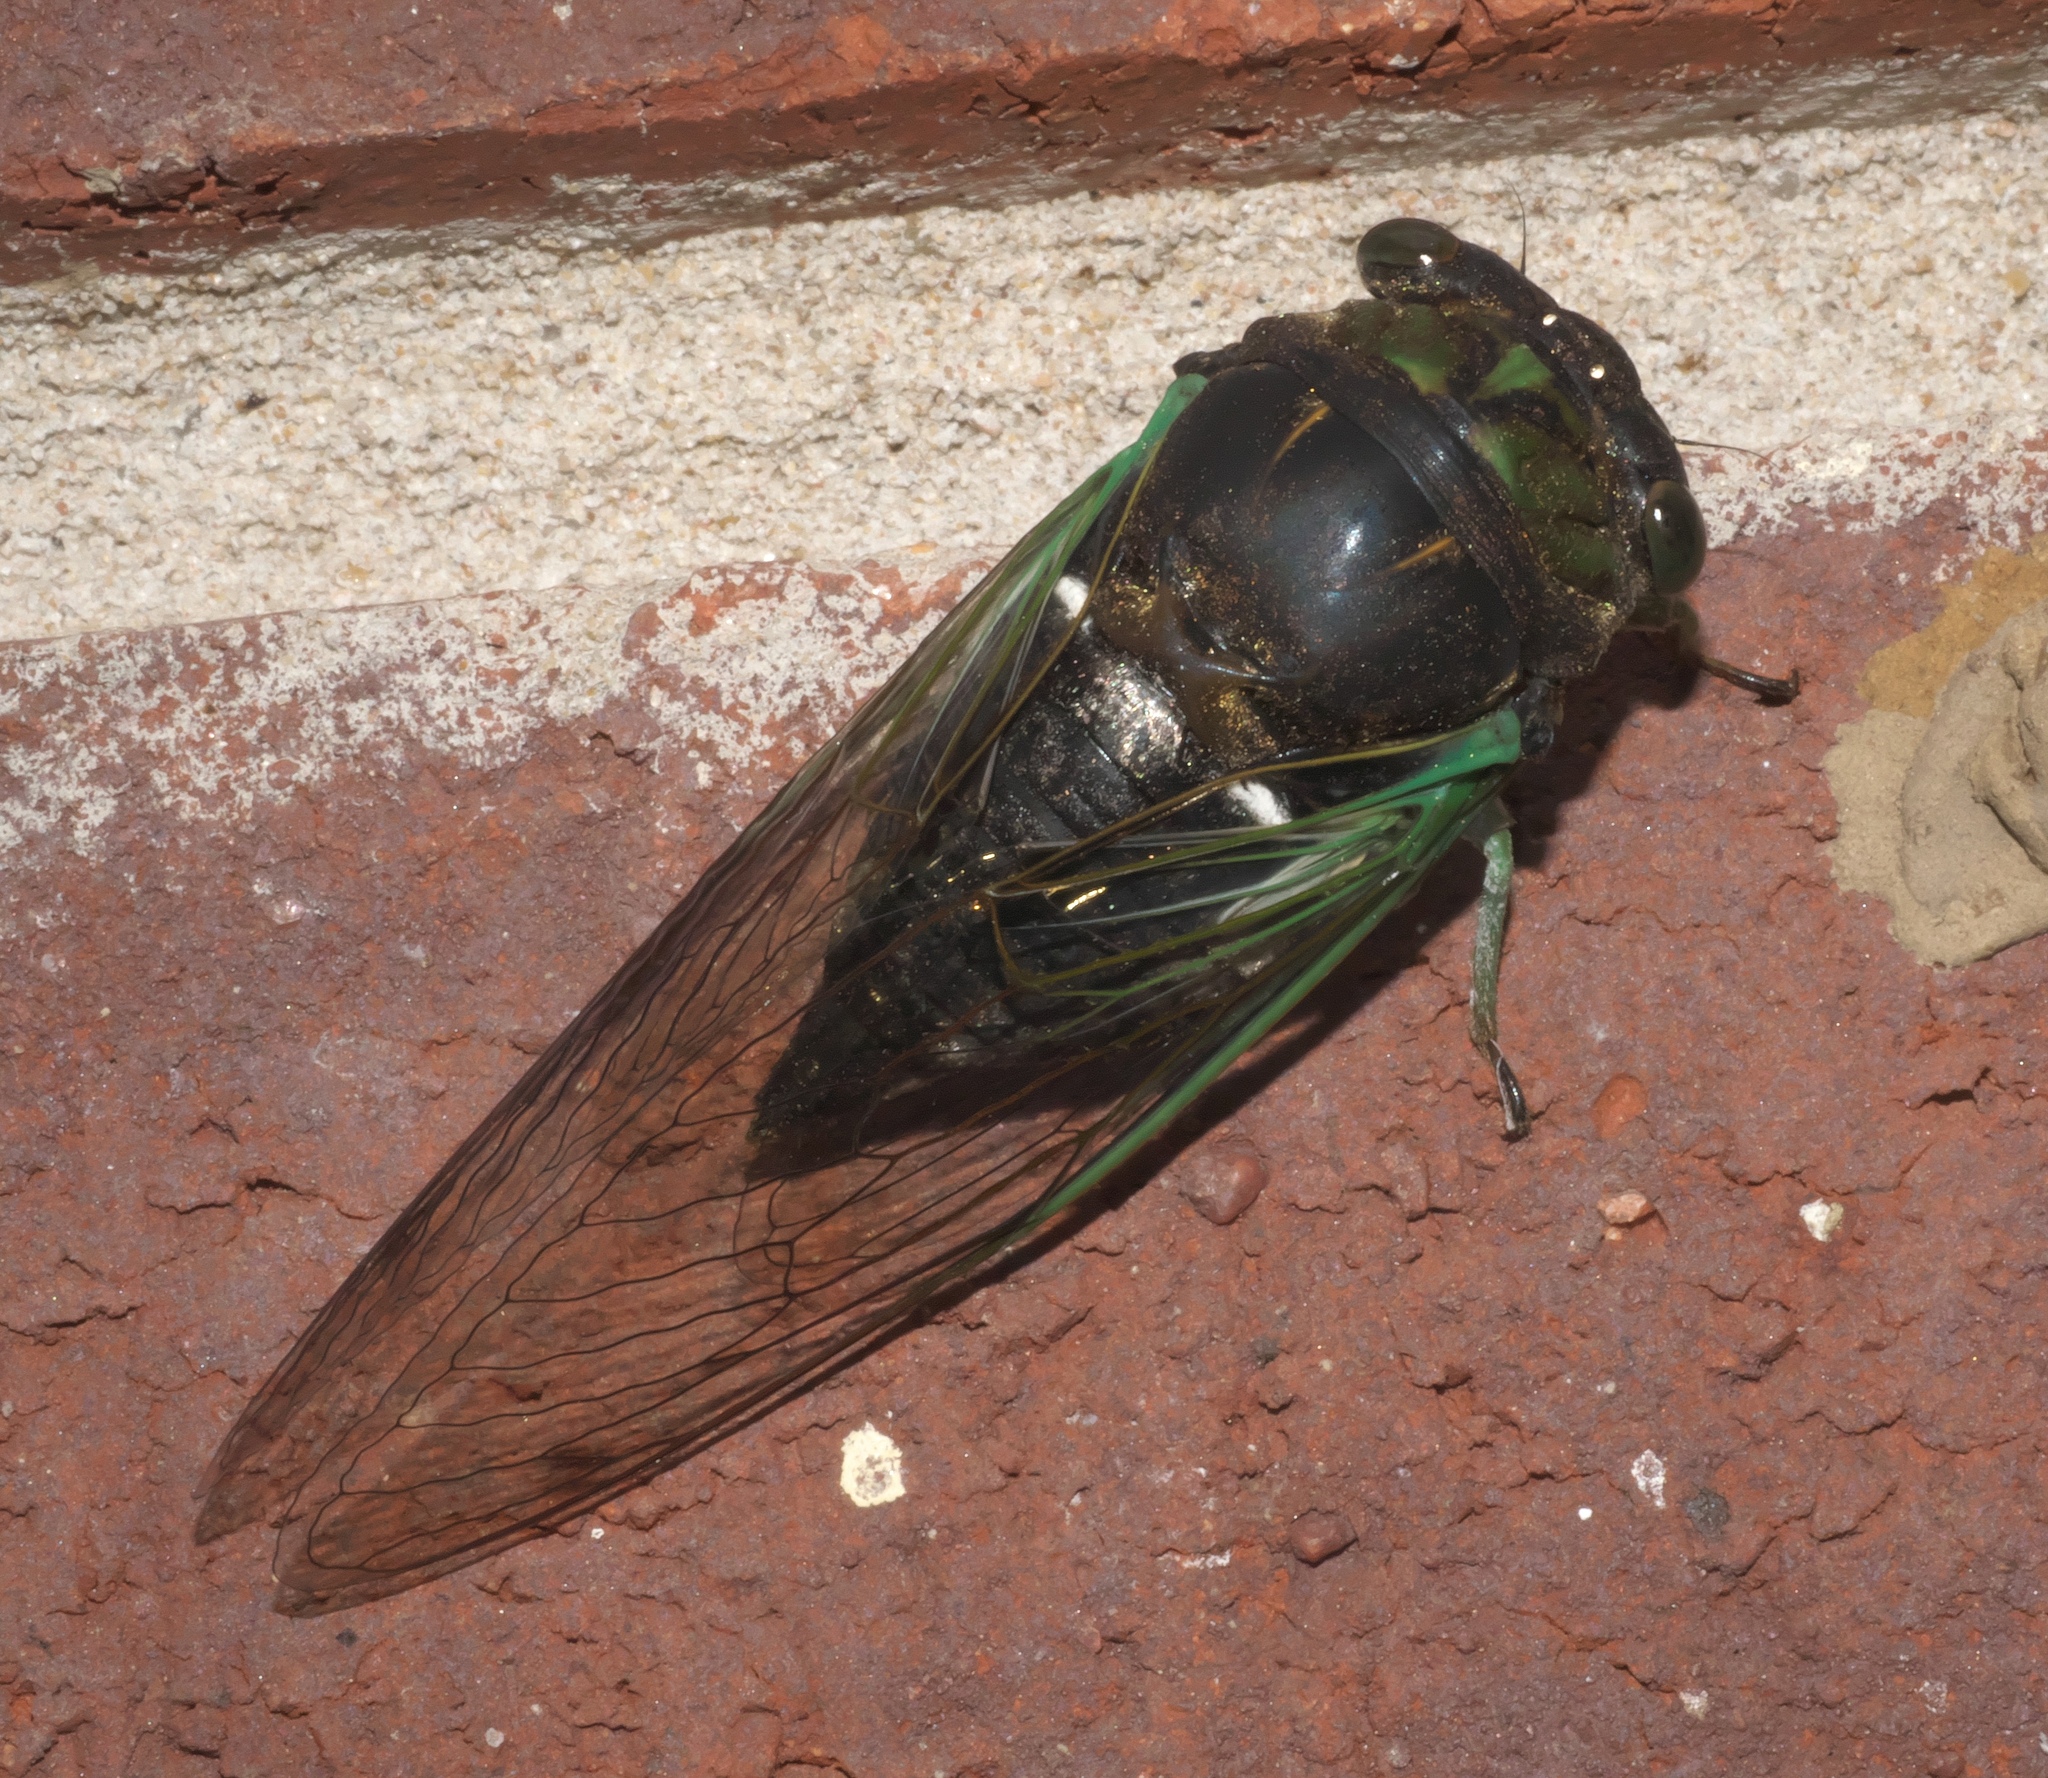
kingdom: Animalia
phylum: Arthropoda
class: Insecta
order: Hemiptera
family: Cicadidae
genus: Neotibicen
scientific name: Neotibicen tibicen
